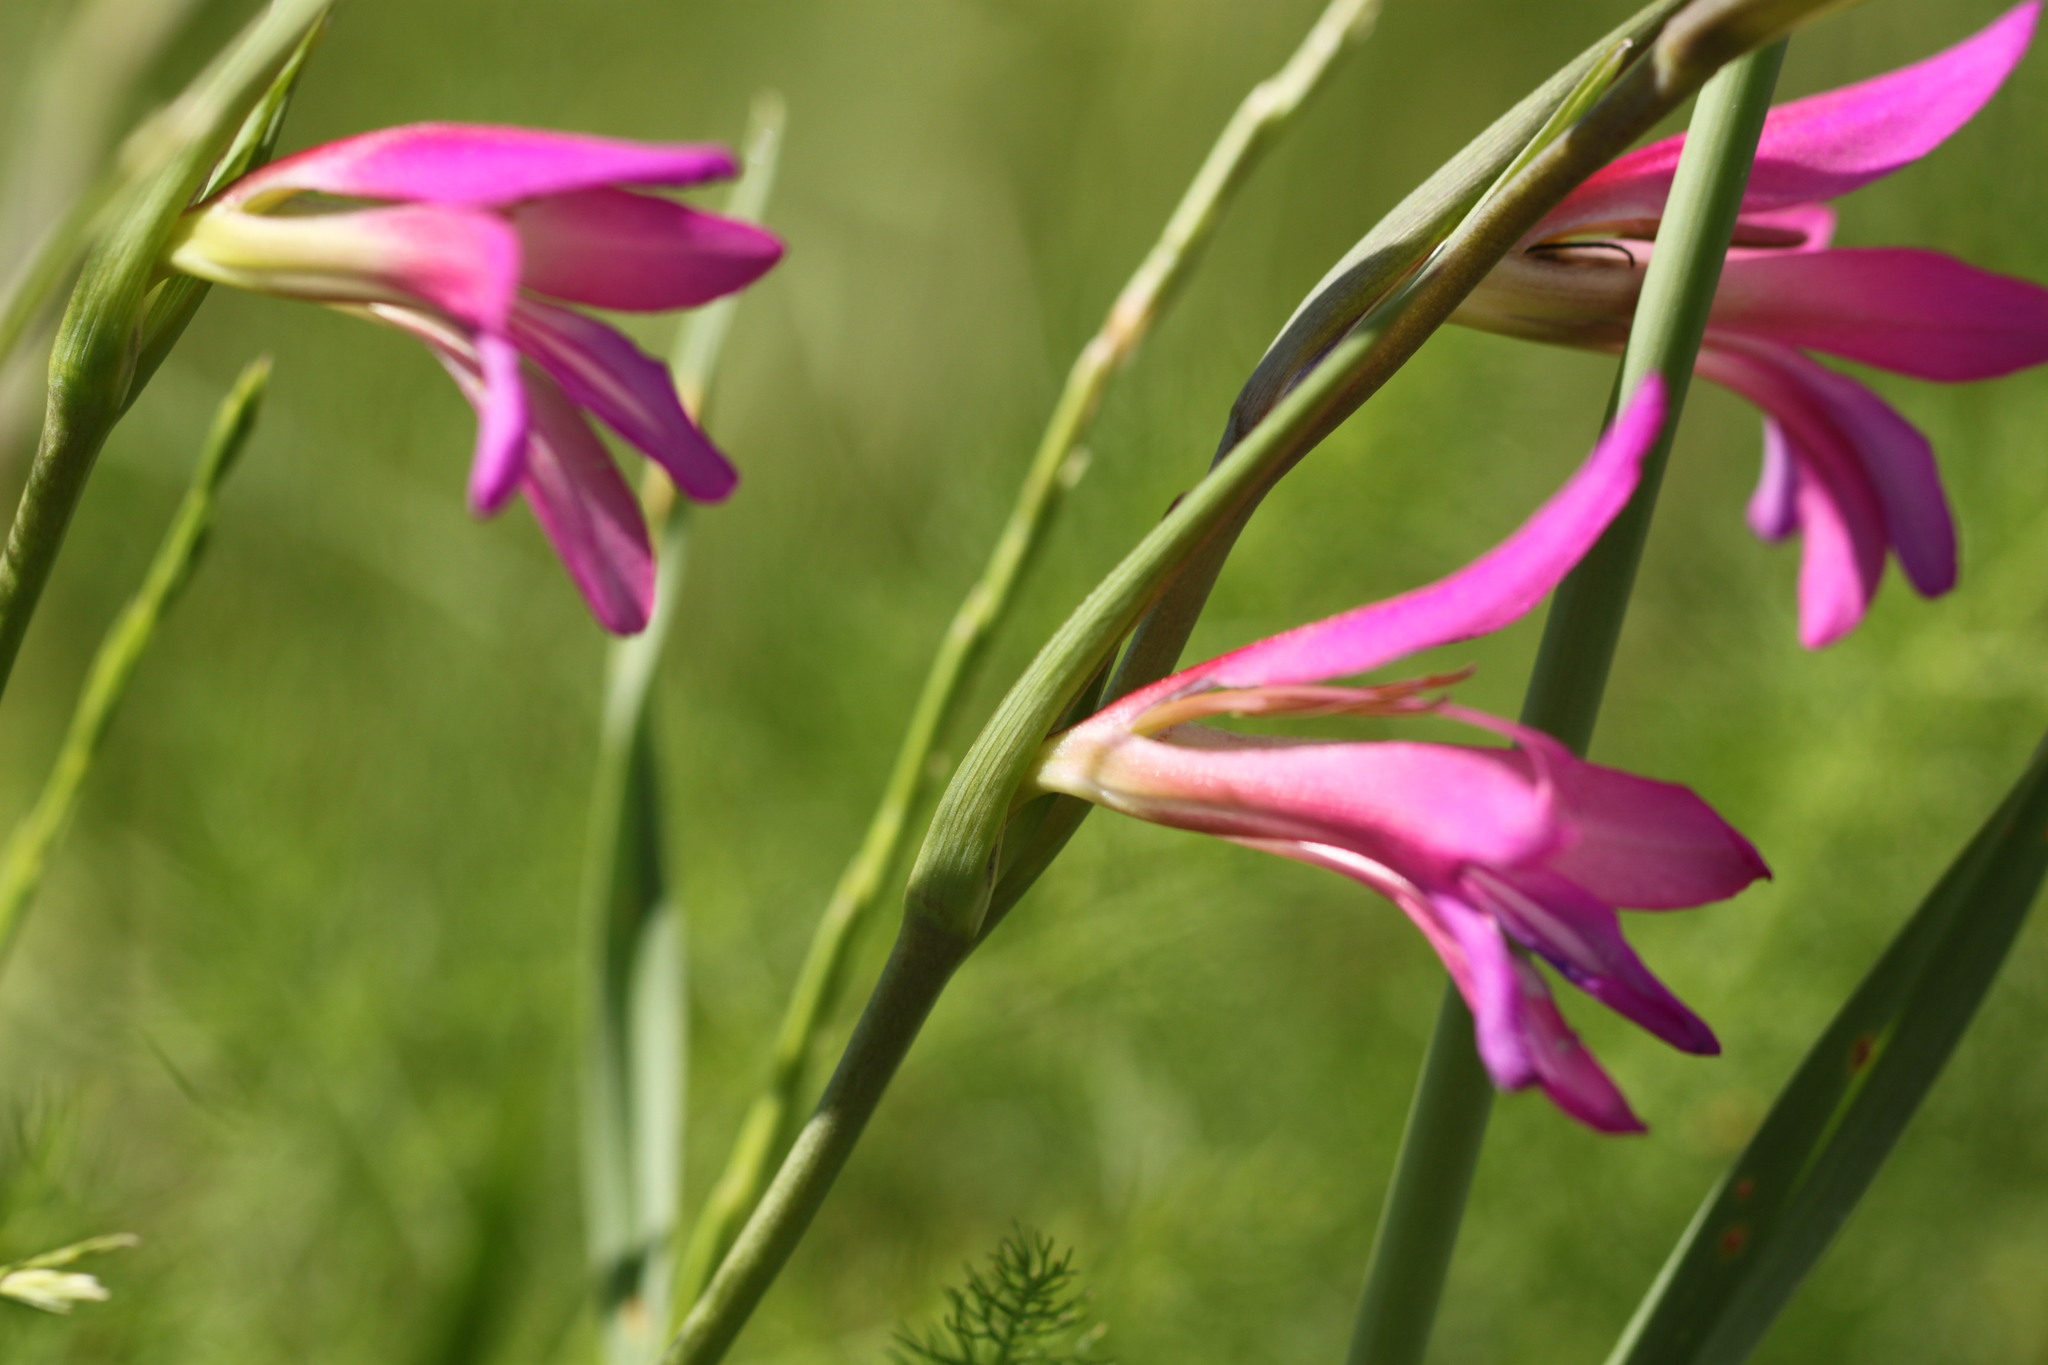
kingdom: Plantae
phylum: Tracheophyta
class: Liliopsida
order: Asparagales
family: Iridaceae
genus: Gladiolus
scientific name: Gladiolus italicus
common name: Field gladiolus
